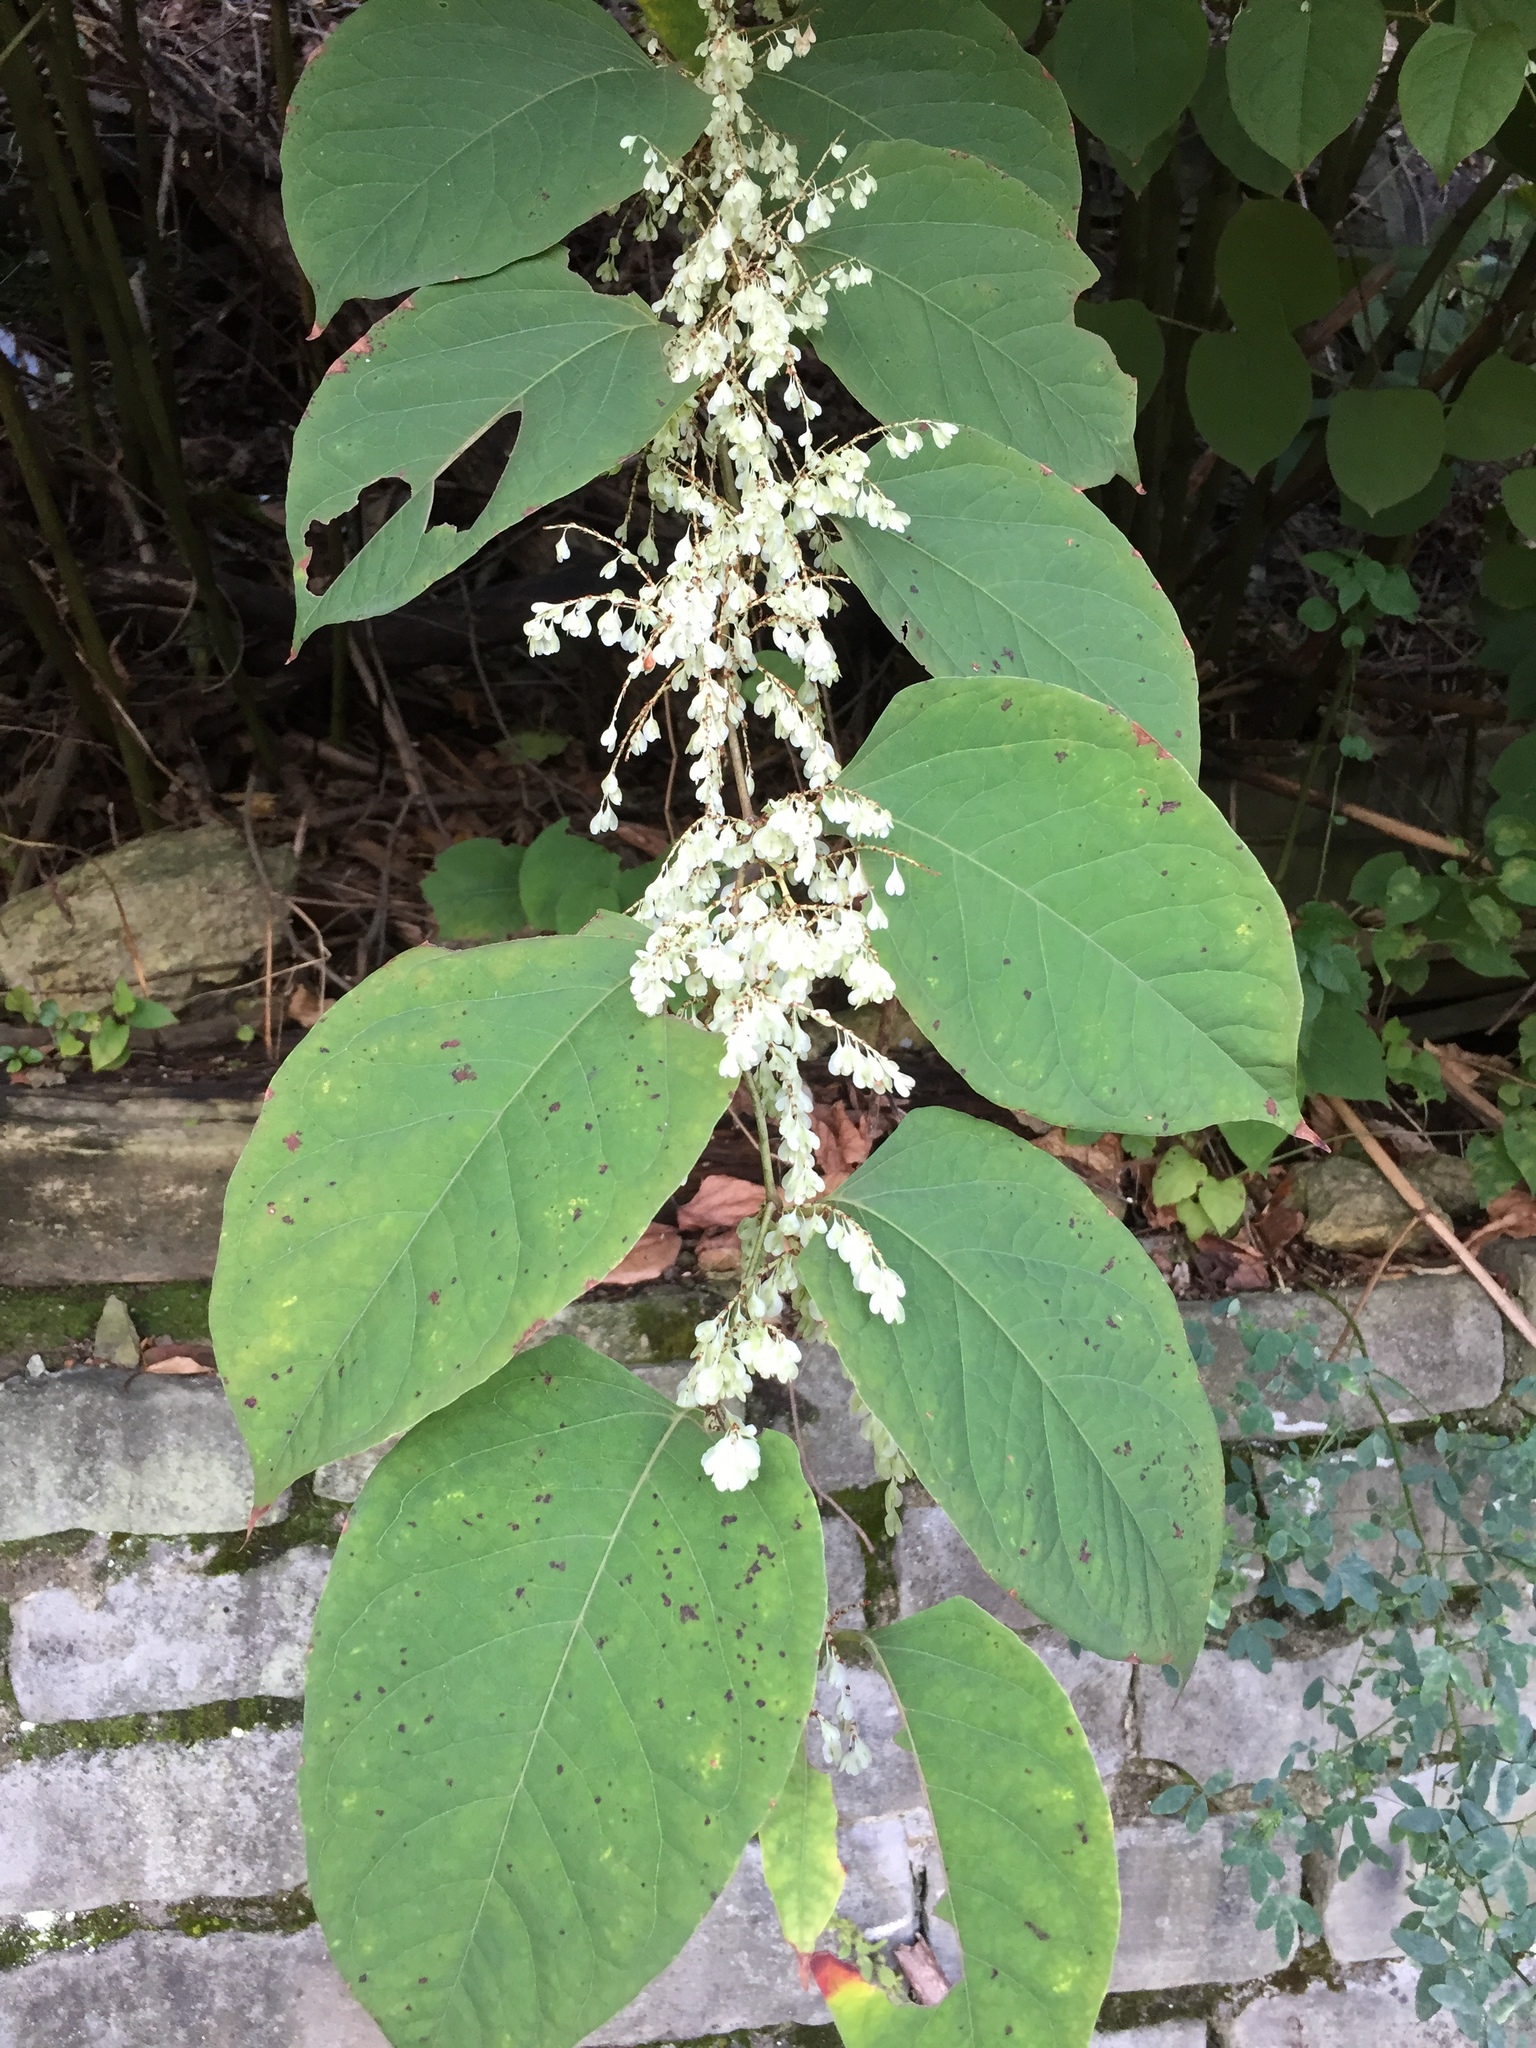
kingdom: Plantae
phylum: Tracheophyta
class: Magnoliopsida
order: Caryophyllales
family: Polygonaceae
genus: Reynoutria
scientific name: Reynoutria japonica
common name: Japanese knotweed
